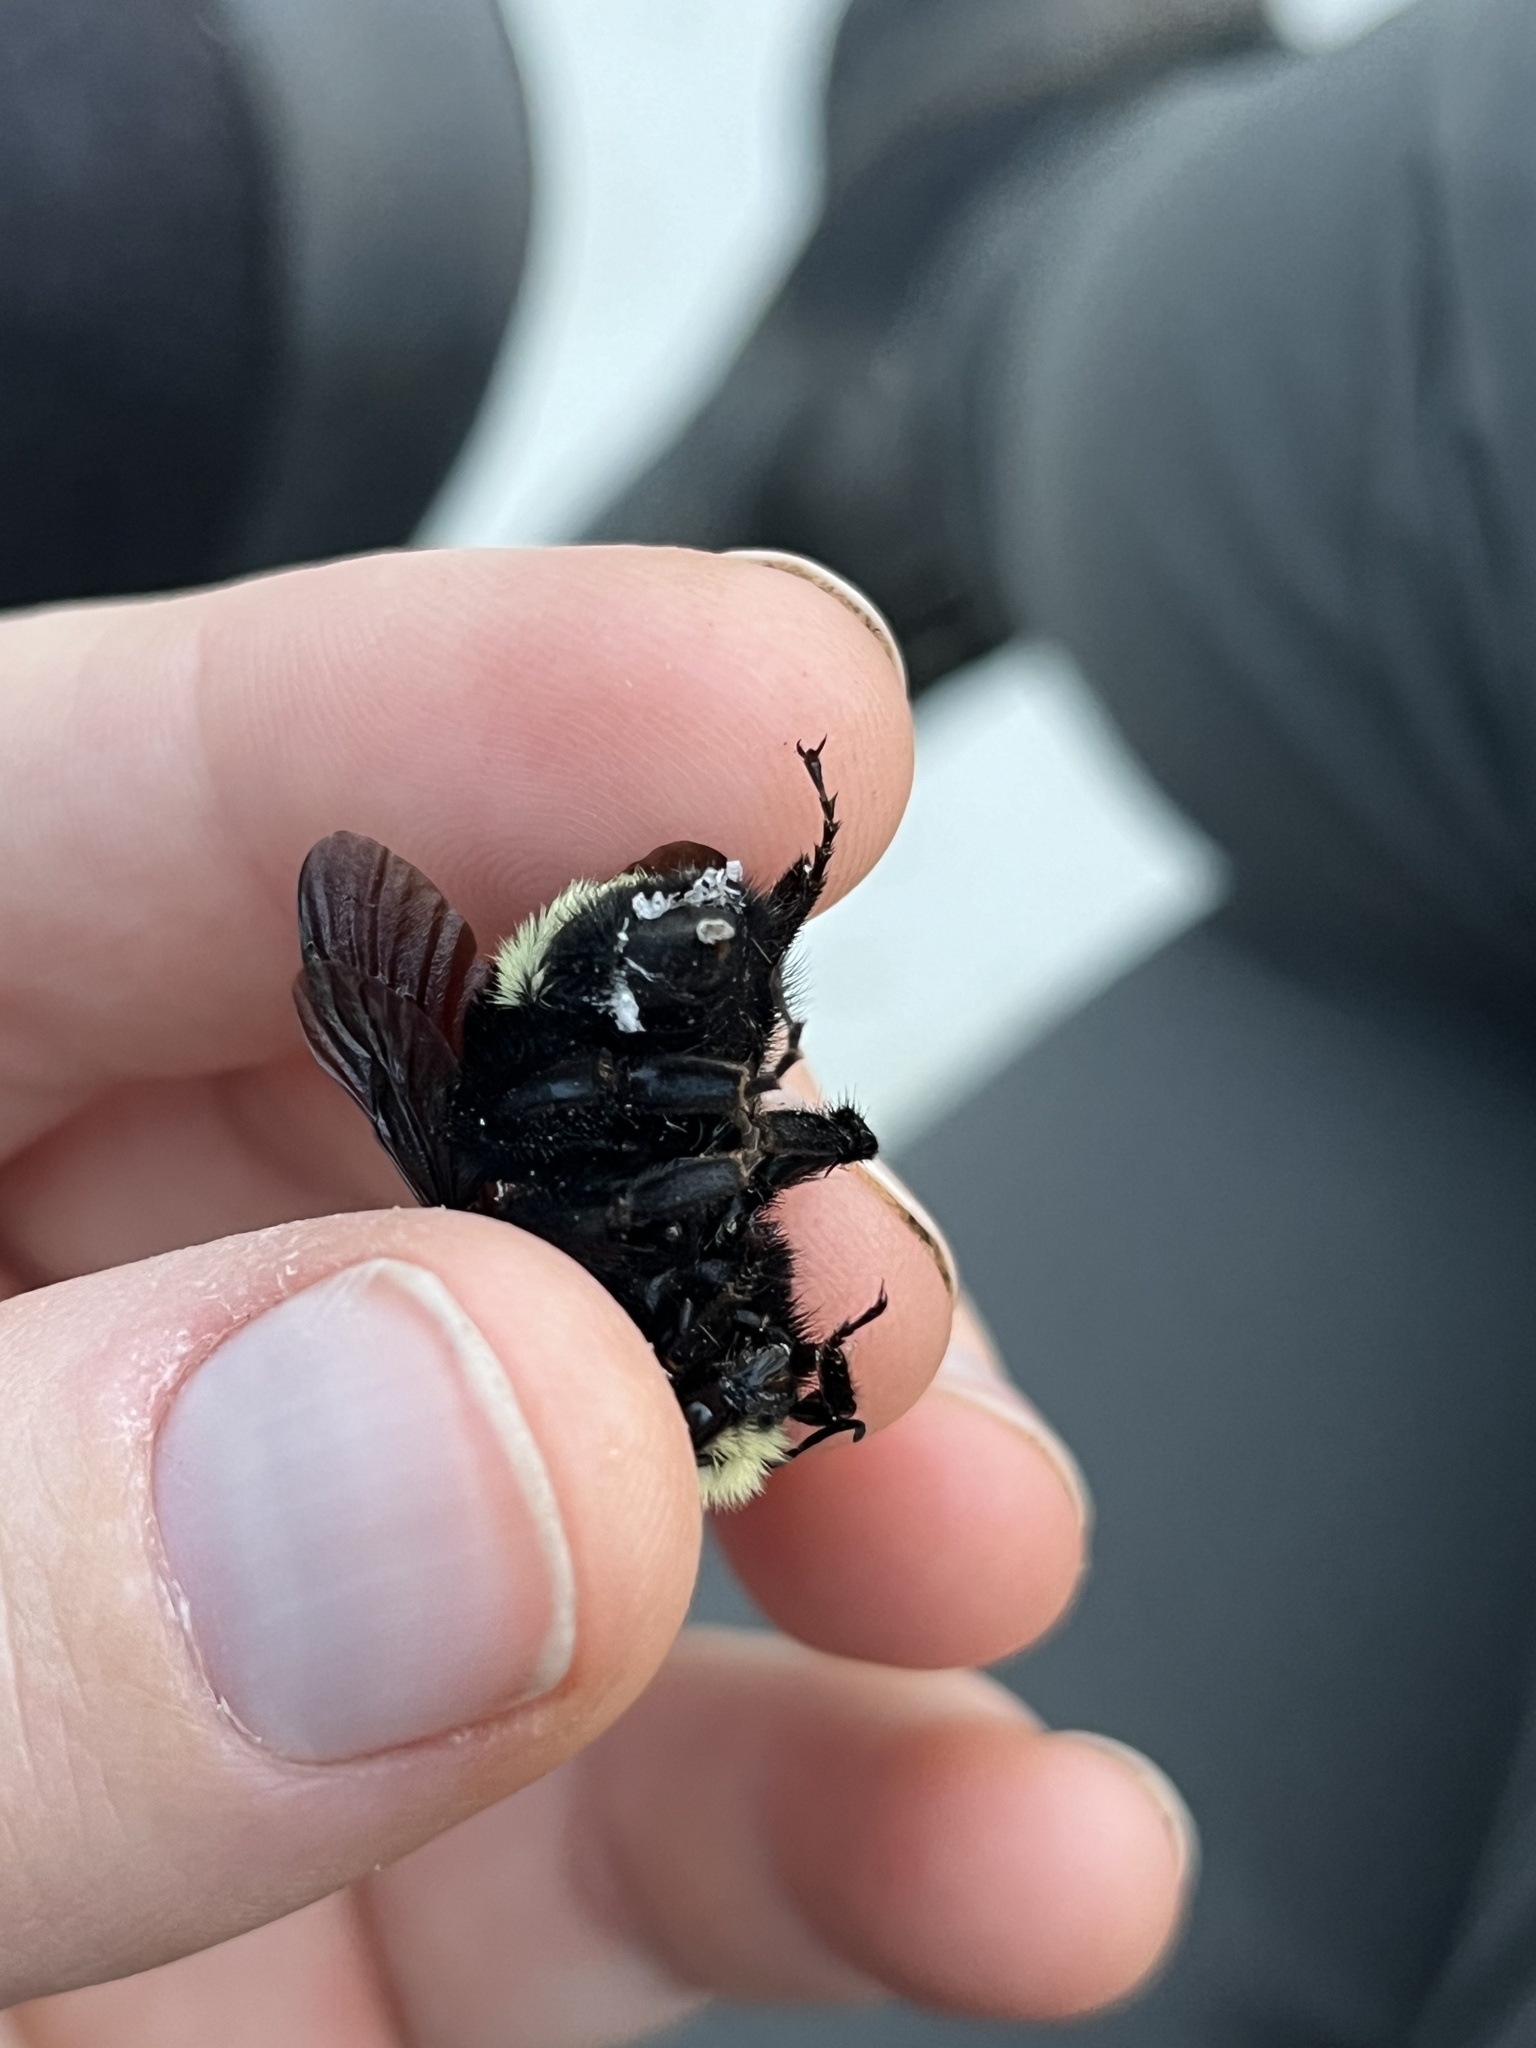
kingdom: Animalia
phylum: Arthropoda
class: Insecta
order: Hymenoptera
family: Apidae
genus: Bombus
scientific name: Bombus vosnesenskii
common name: Vosnesensky bumble bee
